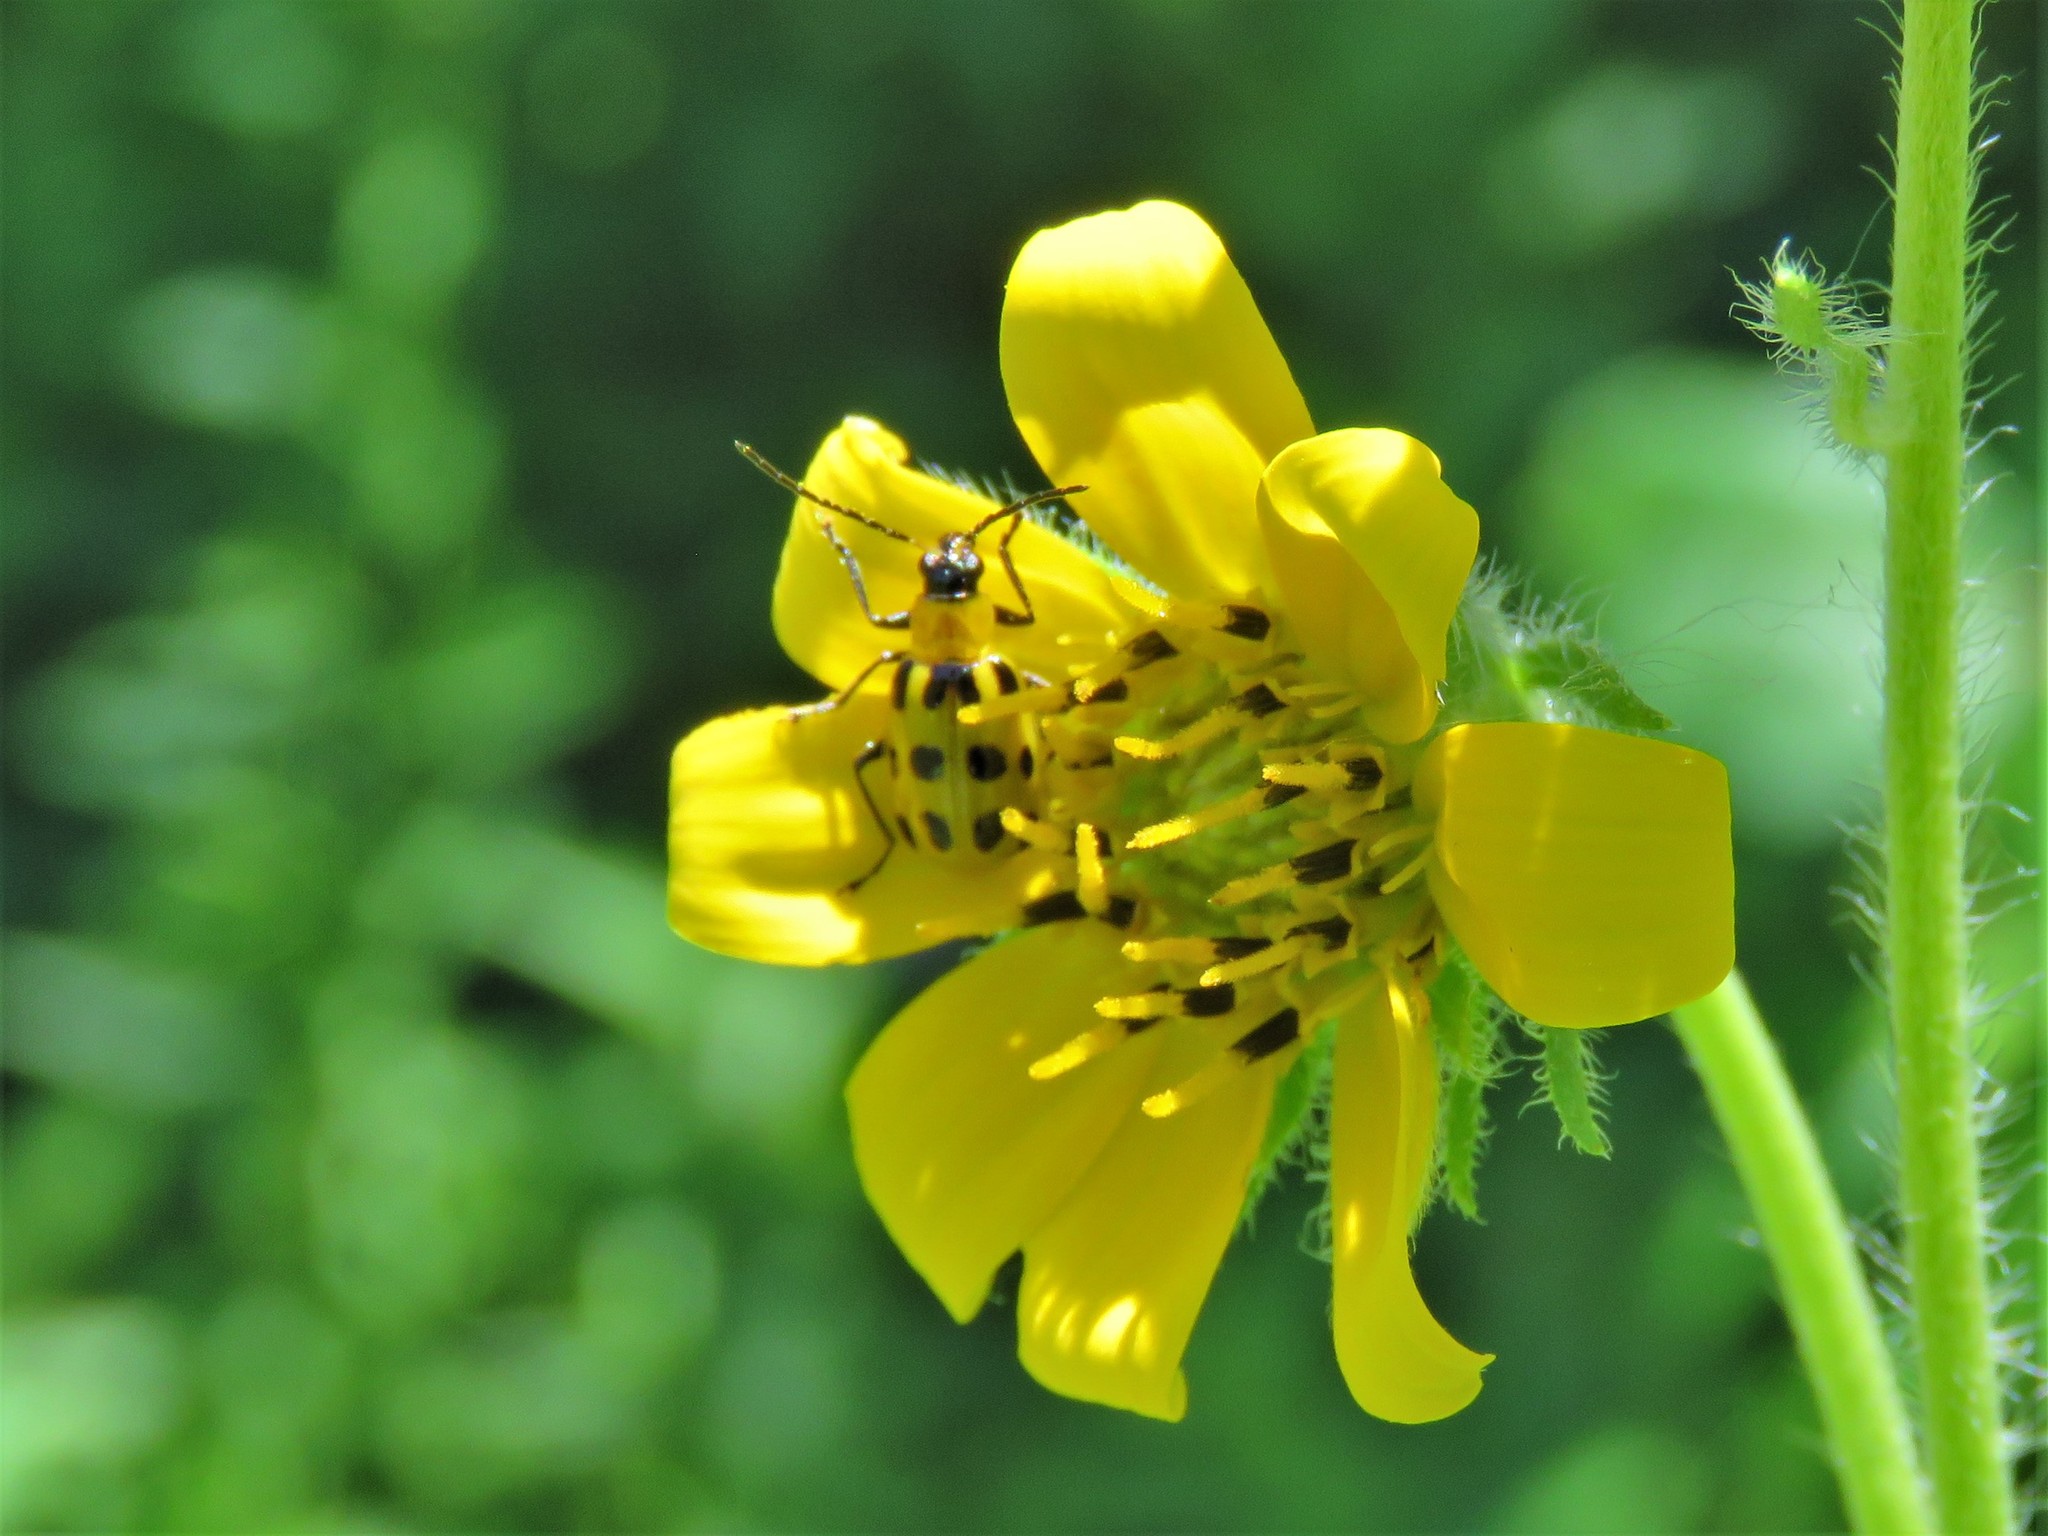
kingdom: Animalia
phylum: Arthropoda
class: Insecta
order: Coleoptera
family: Chrysomelidae
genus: Diabrotica
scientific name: Diabrotica undecimpunctata
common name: Spotted cucumber beetle
